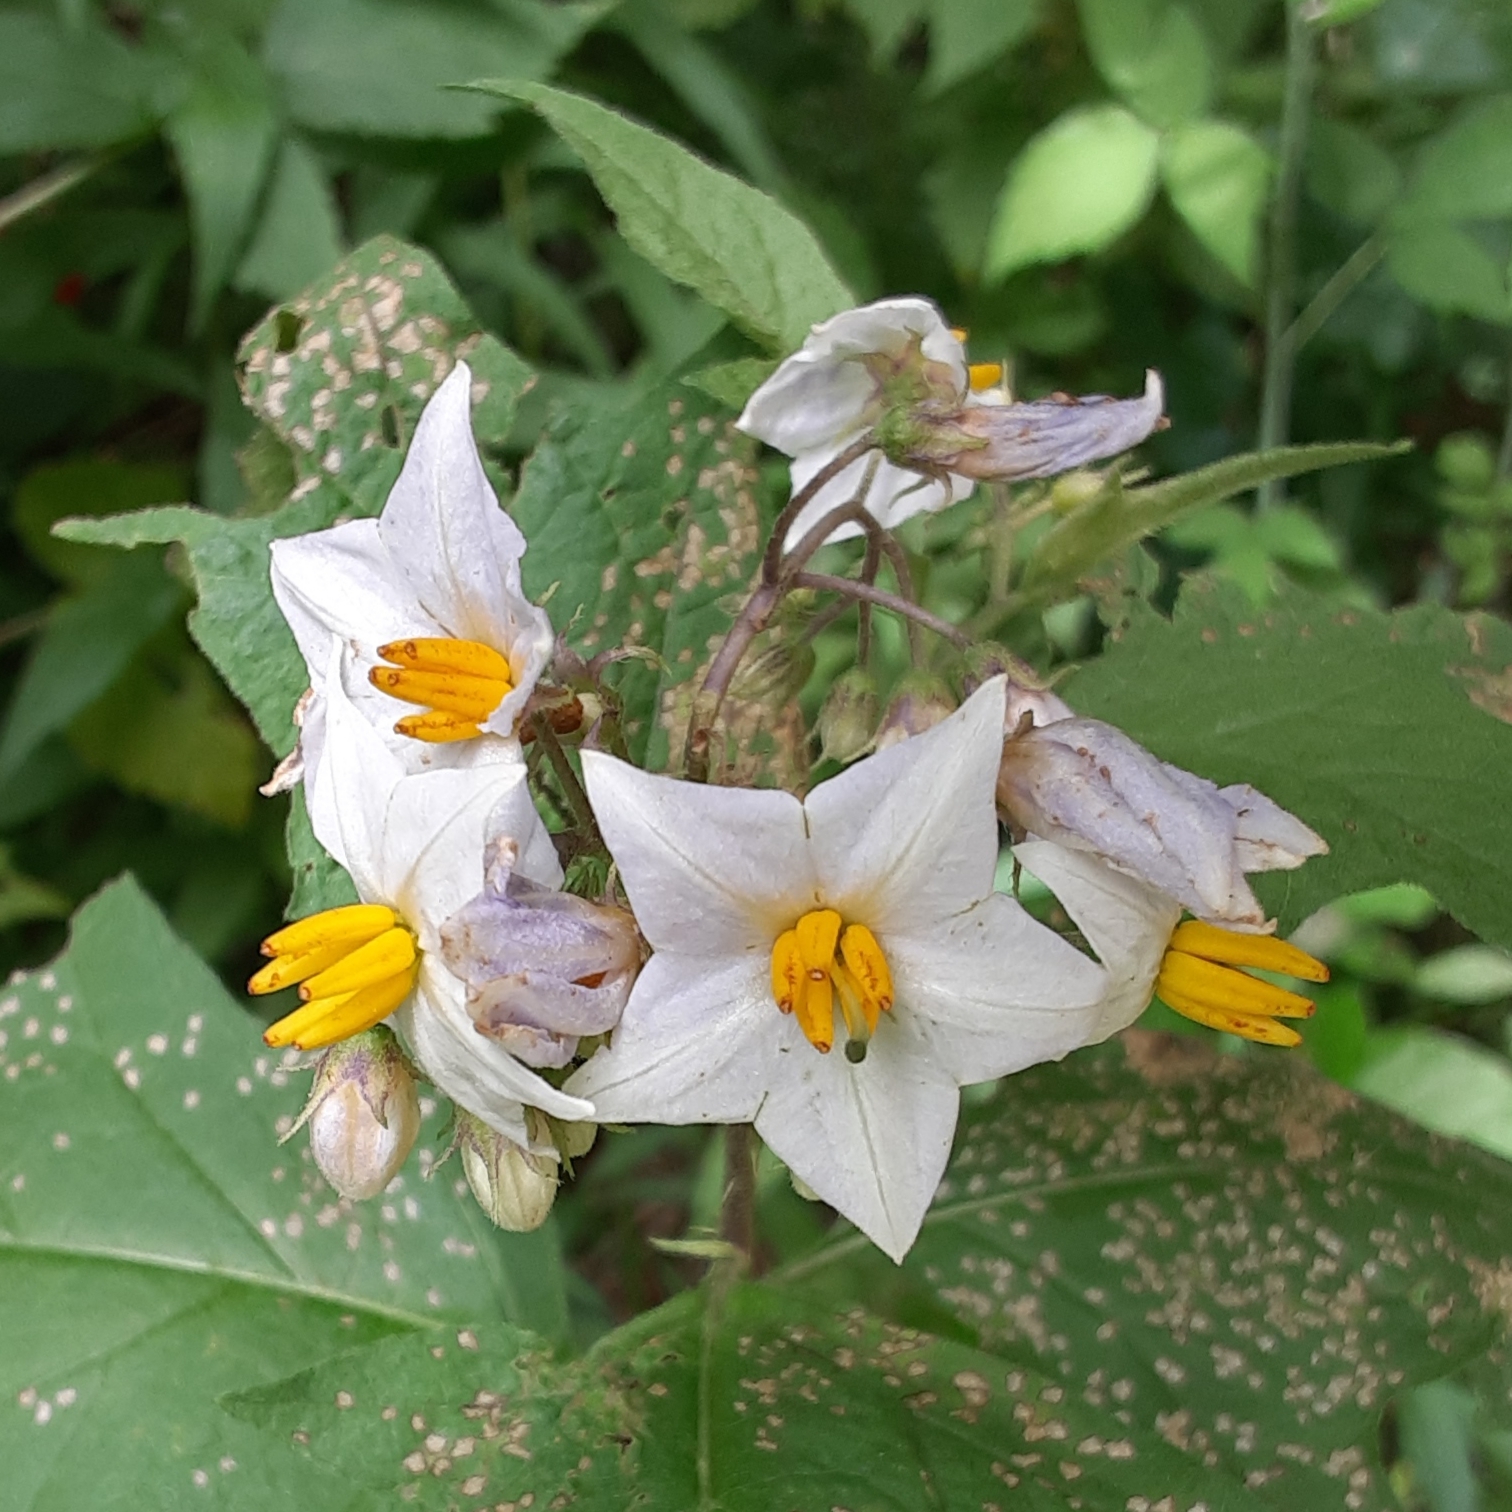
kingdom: Plantae
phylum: Tracheophyta
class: Magnoliopsida
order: Solanales
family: Solanaceae
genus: Solanum
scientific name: Solanum carolinense
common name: Horse-nettle
